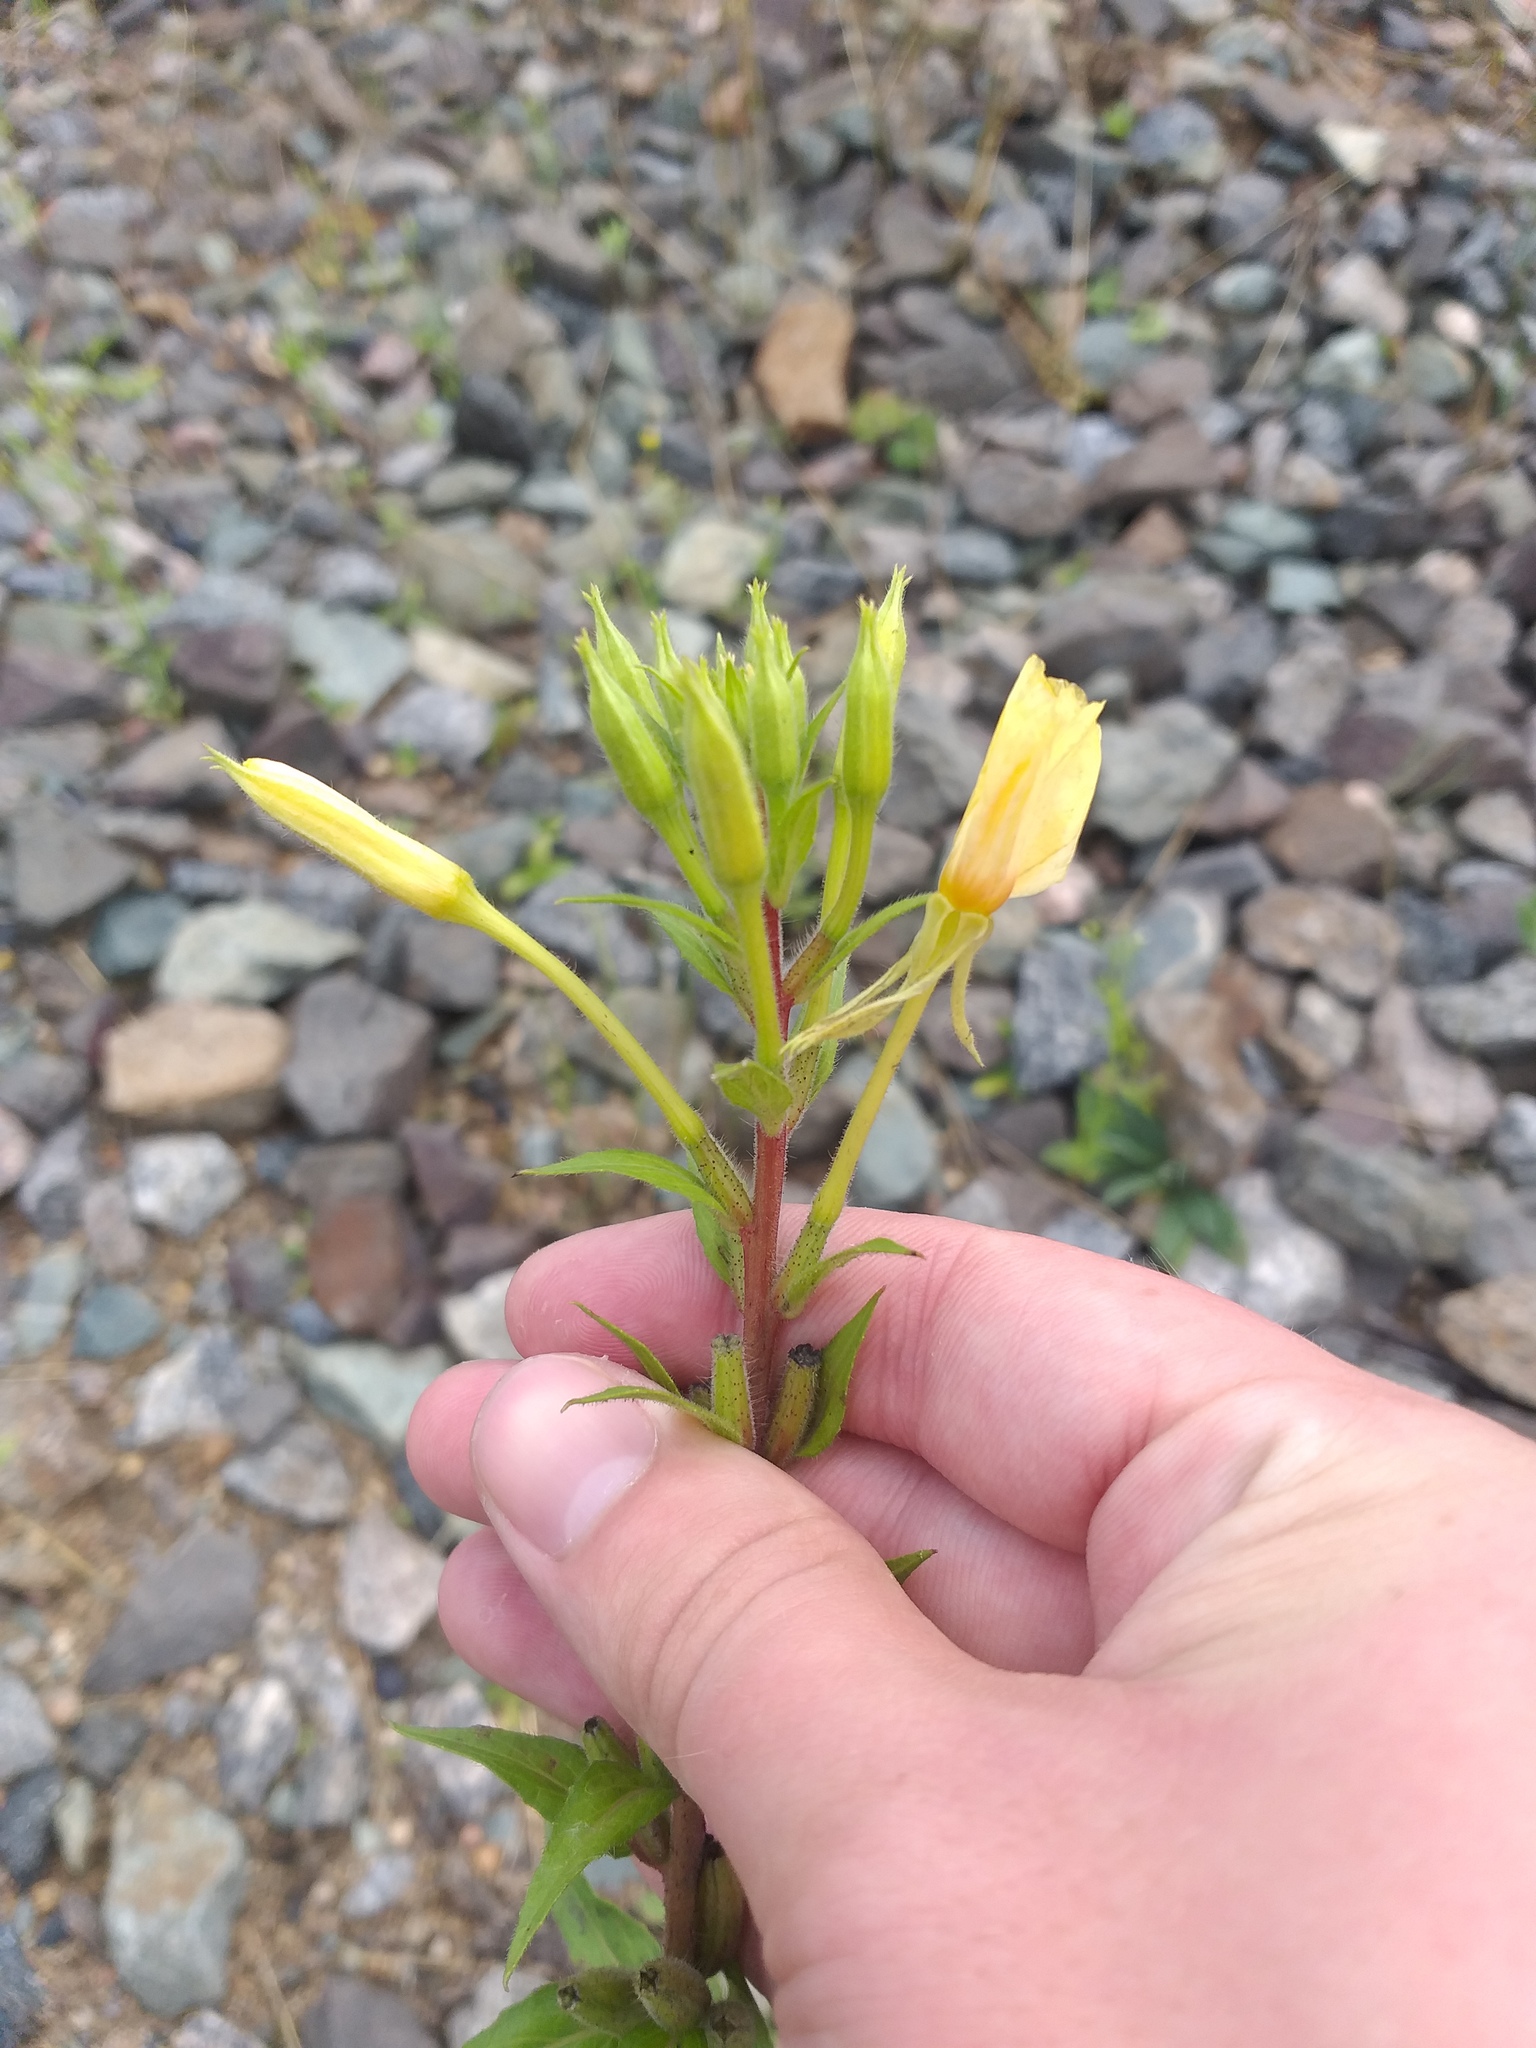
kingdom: Plantae
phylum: Tracheophyta
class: Magnoliopsida
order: Myrtales
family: Onagraceae
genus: Oenothera
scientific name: Oenothera rubricaulis
